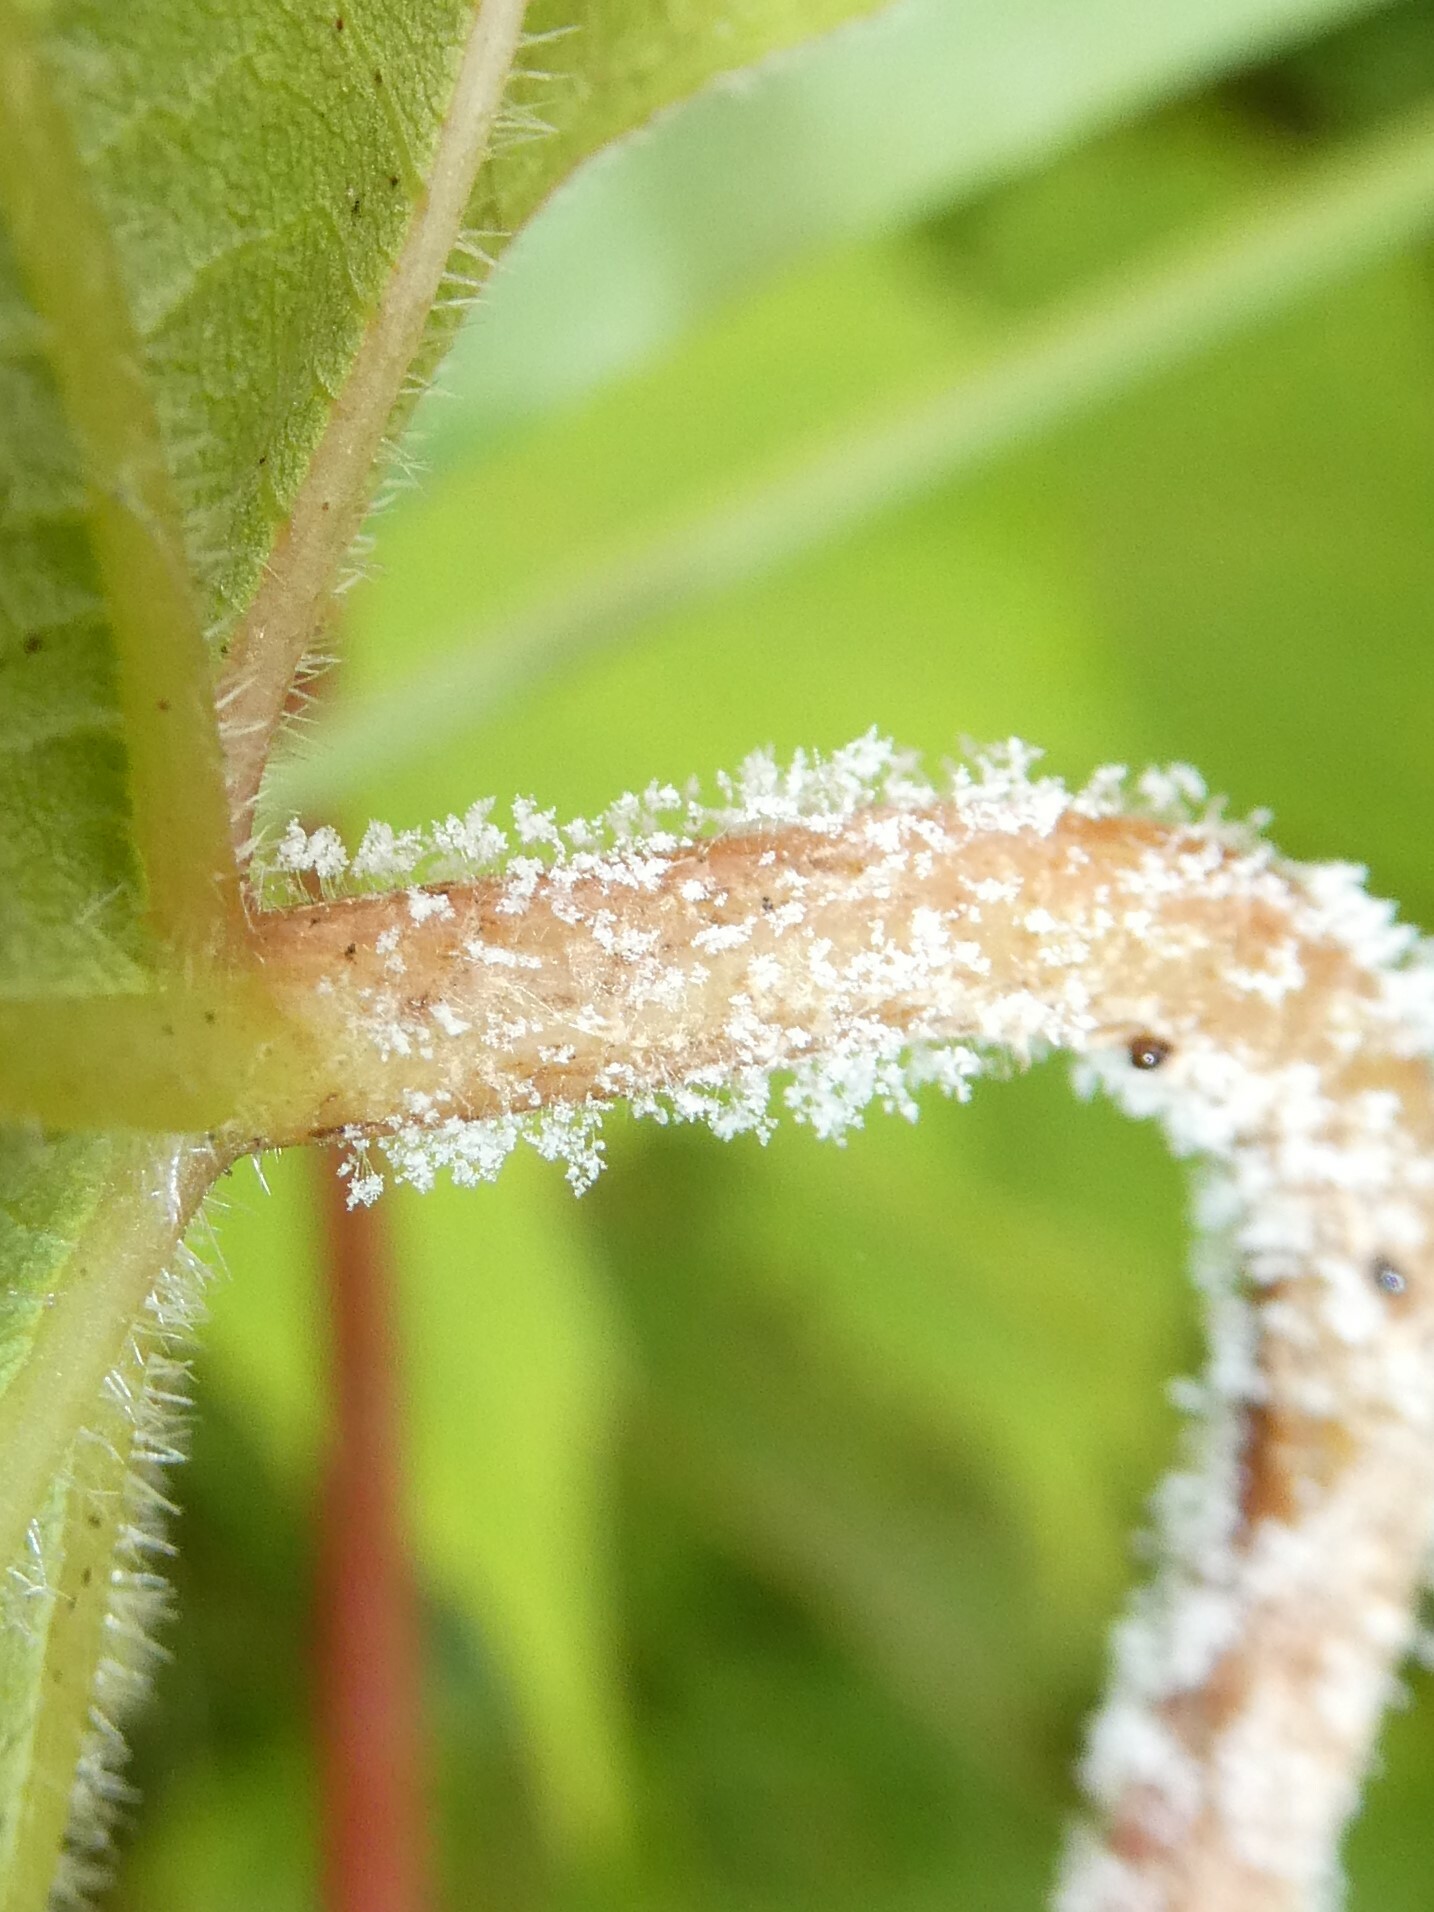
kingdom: Chromista
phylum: Oomycota
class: Peronosporea
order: Peronosporales
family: Peronosporaceae
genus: Plasmopara
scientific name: Plasmopara viticola
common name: Grapevine downy mildew
